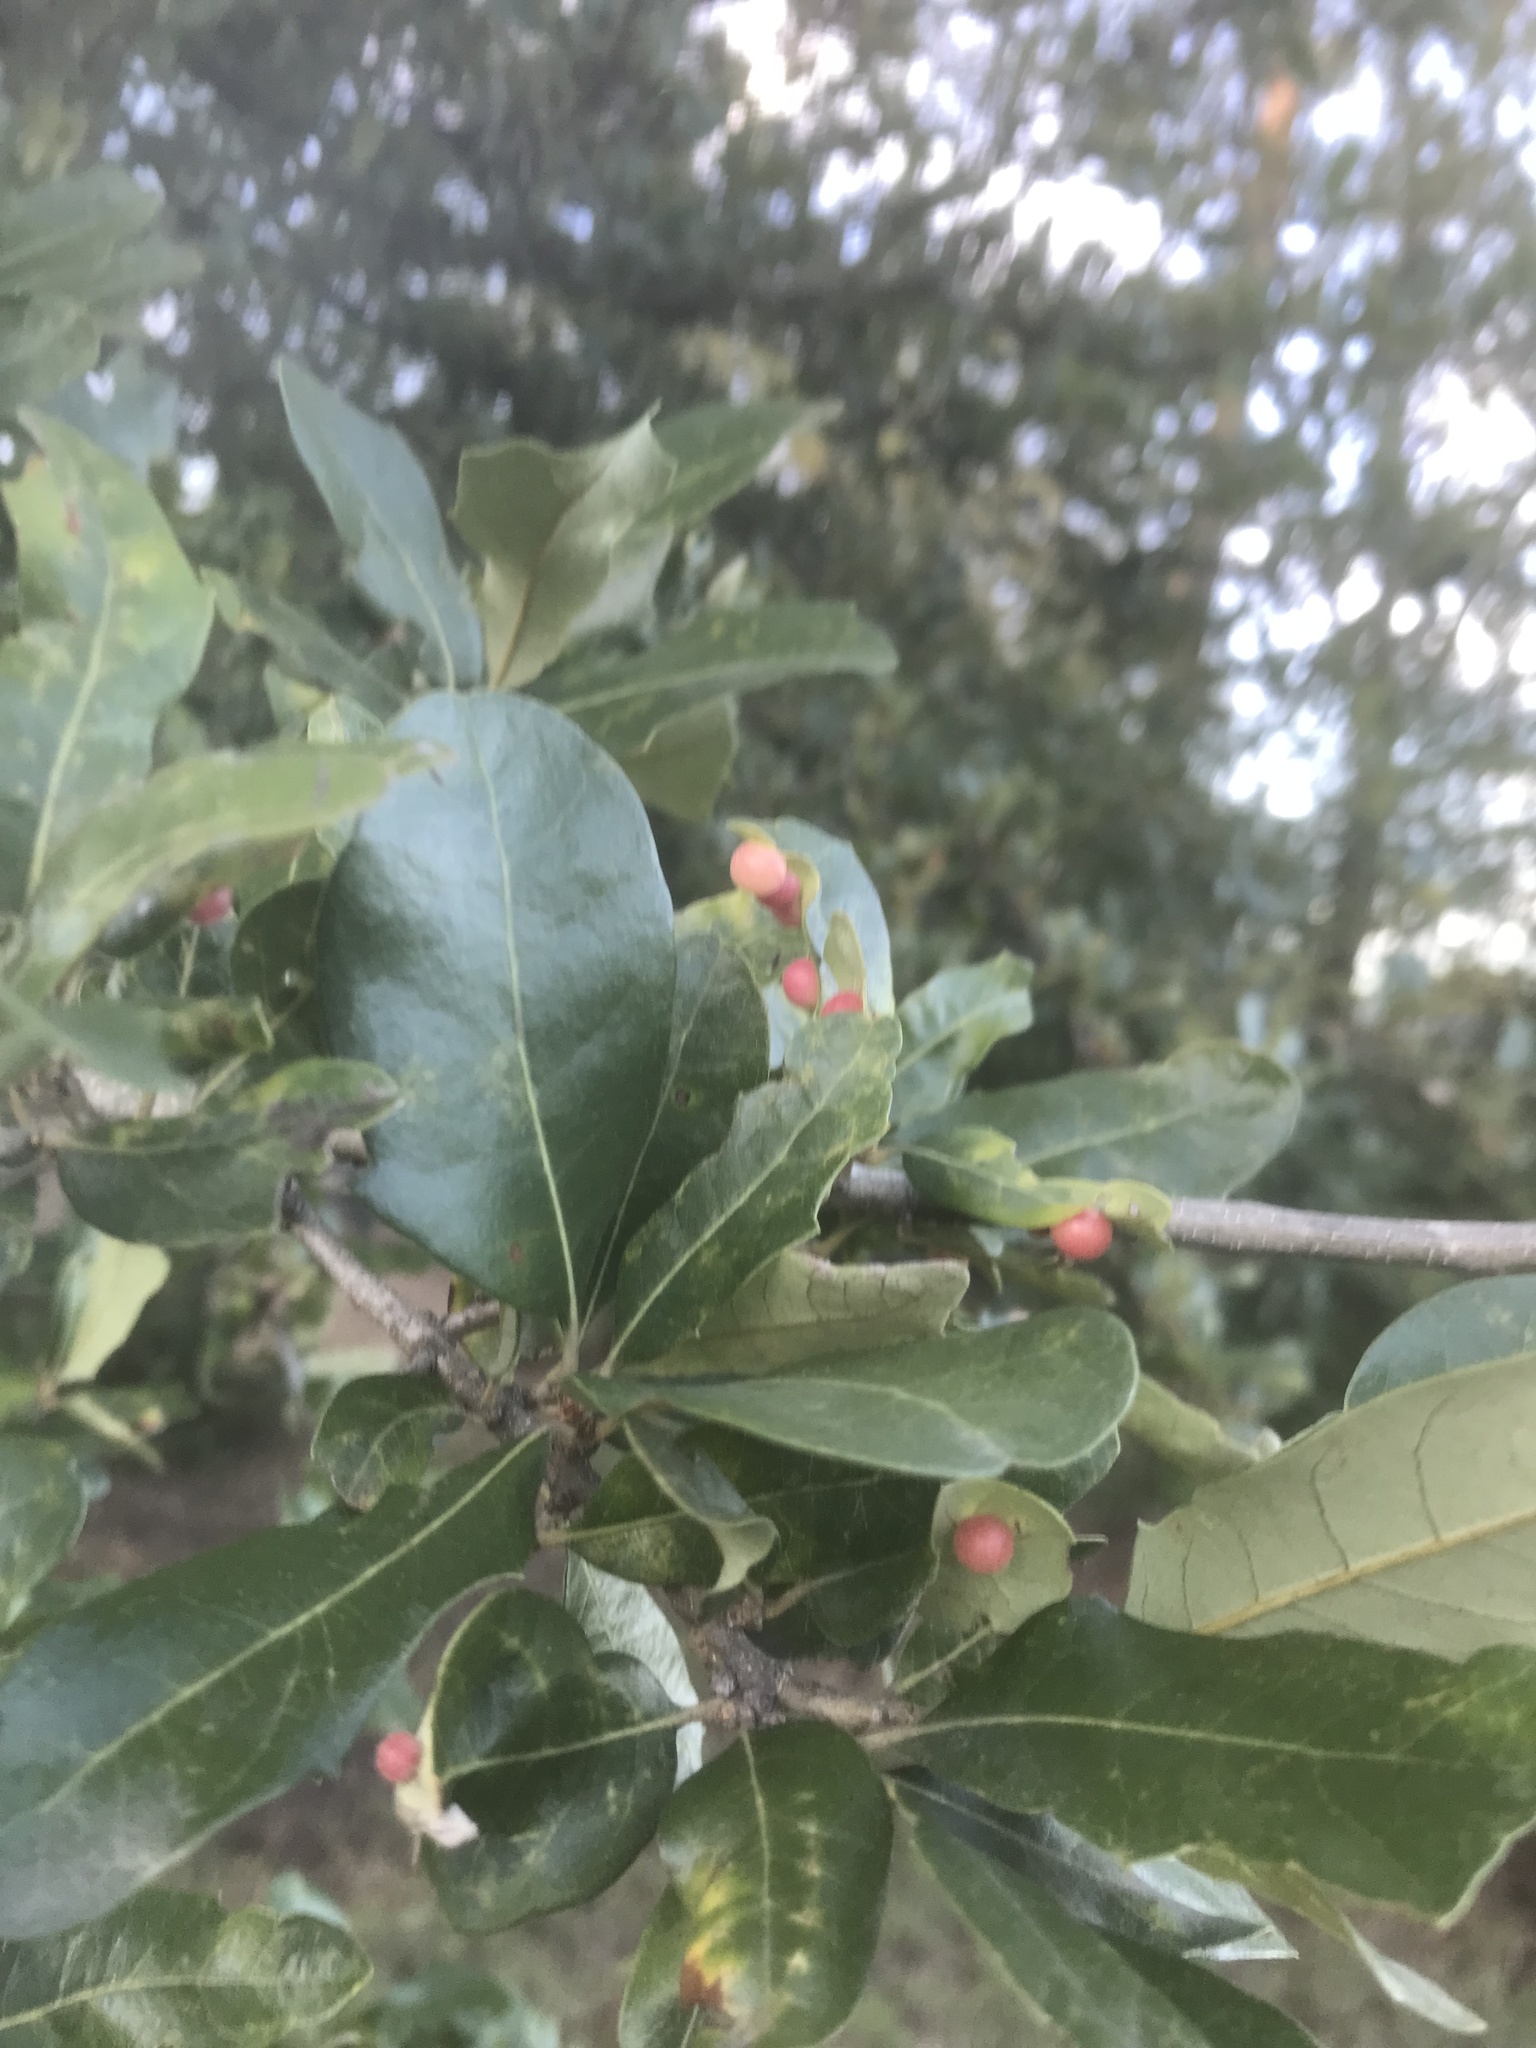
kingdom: Animalia
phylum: Arthropoda
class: Insecta
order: Hymenoptera
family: Cynipidae
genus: Belonocnema
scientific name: Belonocnema kinseyi
